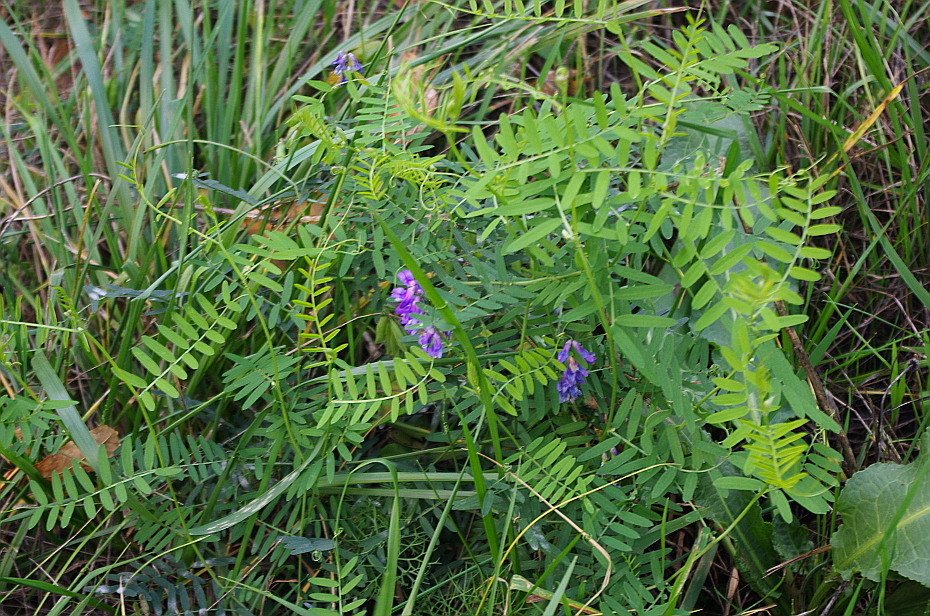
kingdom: Plantae
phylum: Tracheophyta
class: Magnoliopsida
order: Fabales
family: Fabaceae
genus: Vicia
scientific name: Vicia cracca
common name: Bird vetch
